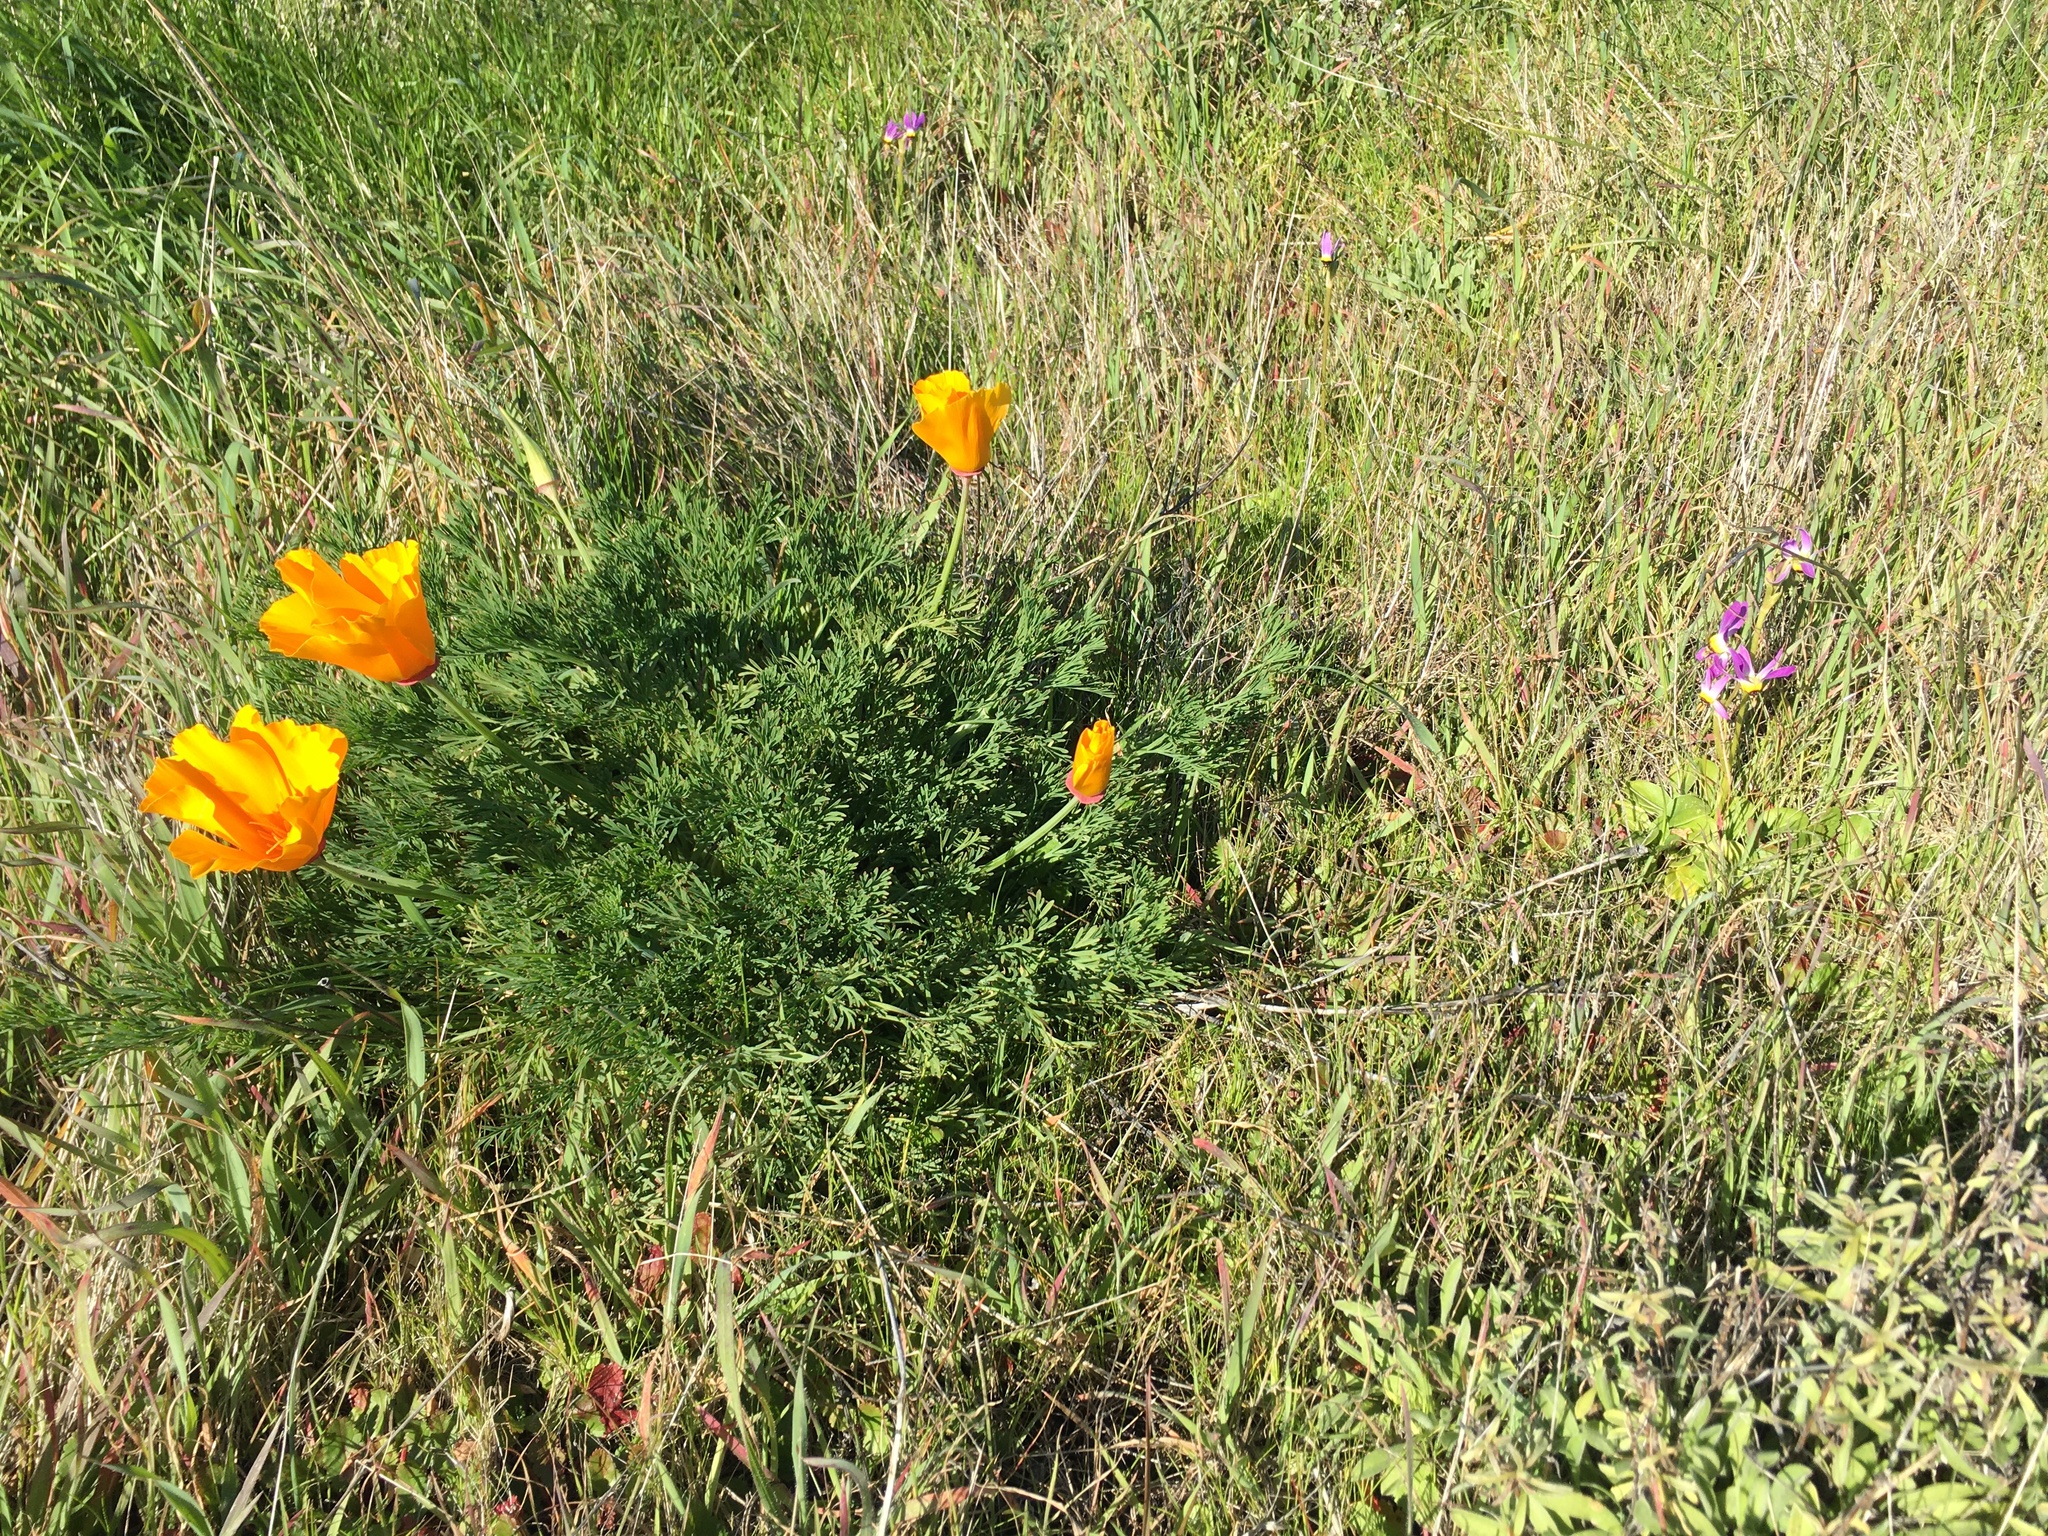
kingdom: Plantae
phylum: Tracheophyta
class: Magnoliopsida
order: Ranunculales
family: Papaveraceae
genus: Eschscholzia
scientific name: Eschscholzia californica
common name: California poppy
